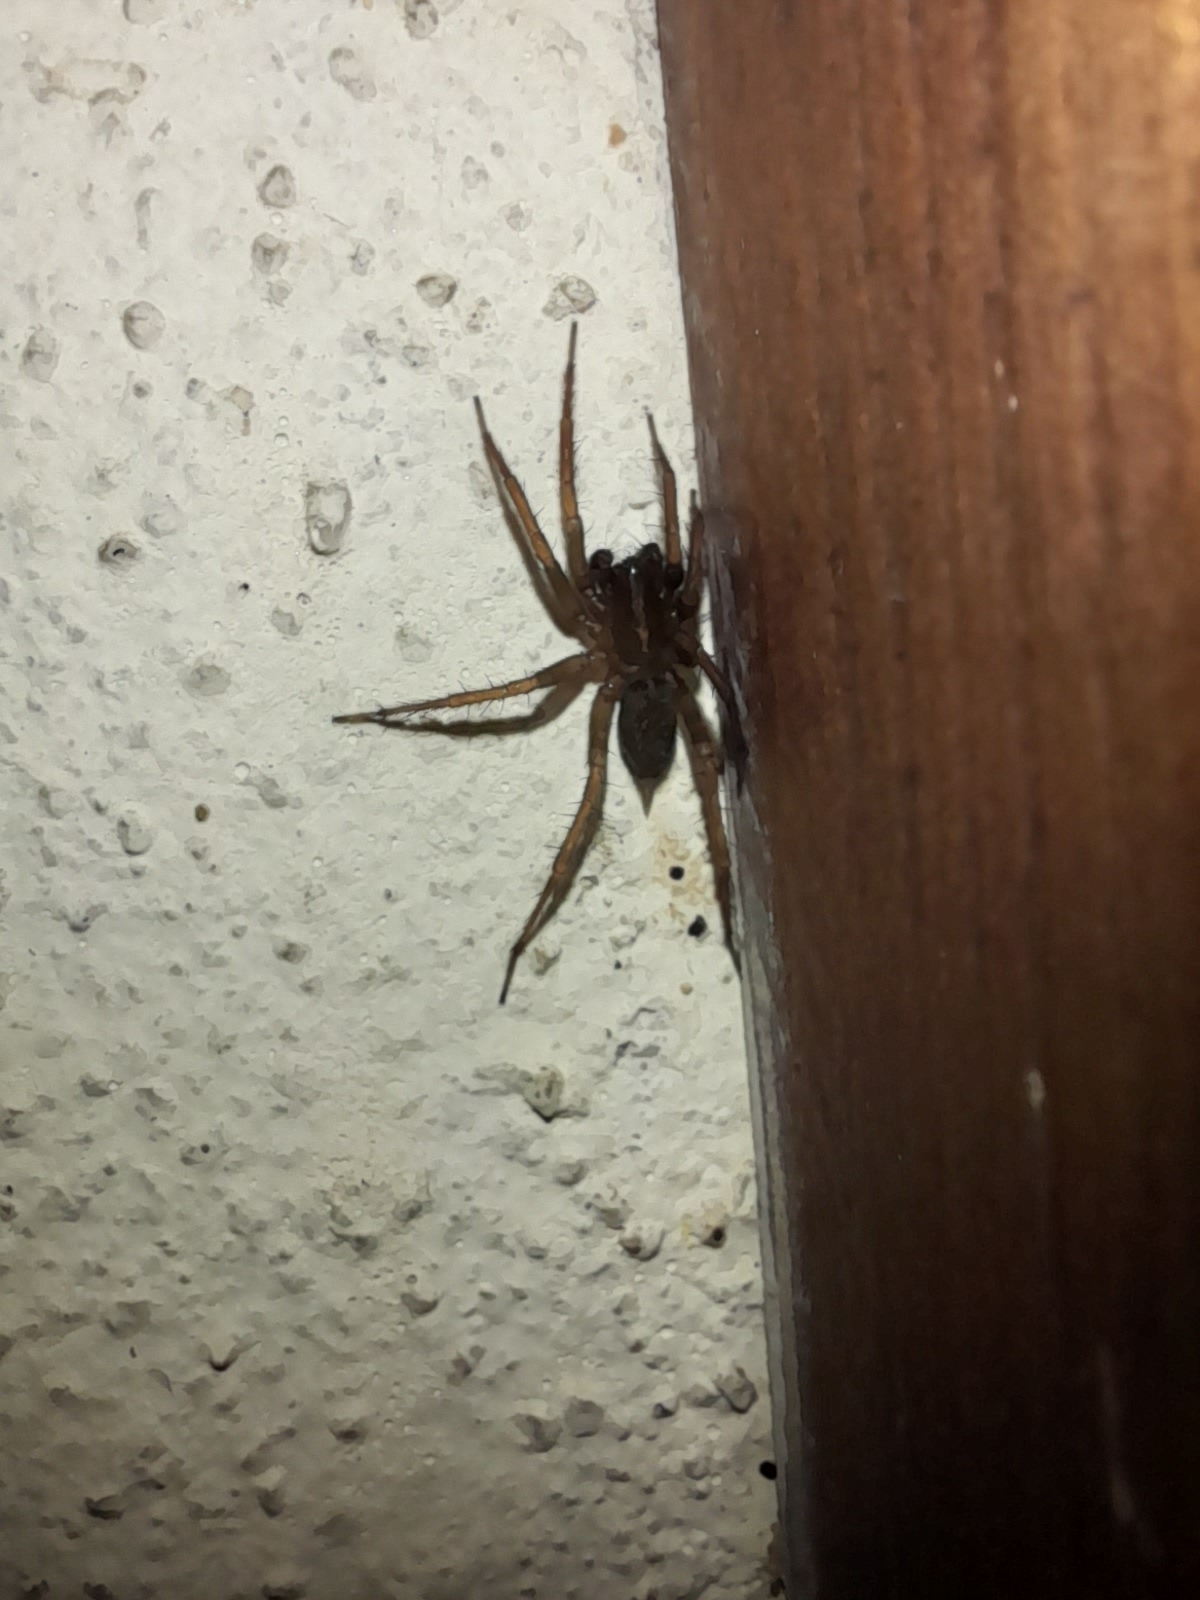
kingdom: Animalia
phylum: Arthropoda
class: Arachnida
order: Araneae
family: Agelenidae
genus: Lycosoides
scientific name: Lycosoides coarctata
